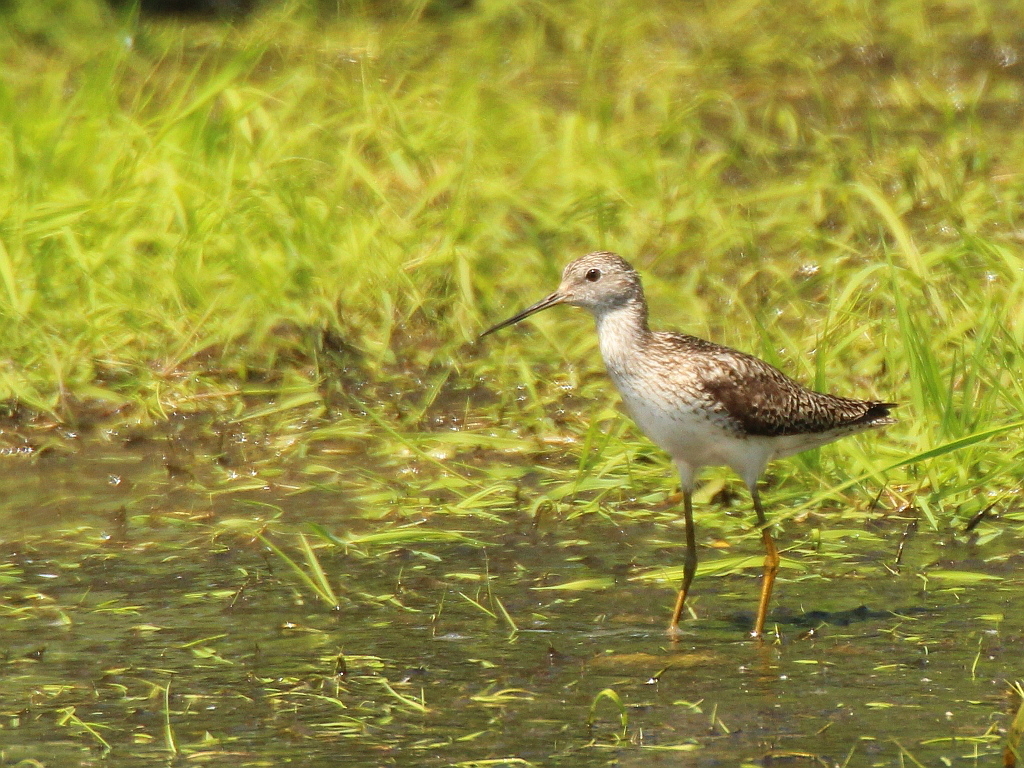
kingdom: Animalia
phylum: Chordata
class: Aves
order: Charadriiformes
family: Scolopacidae
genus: Tringa
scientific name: Tringa stagnatilis
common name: Marsh sandpiper
